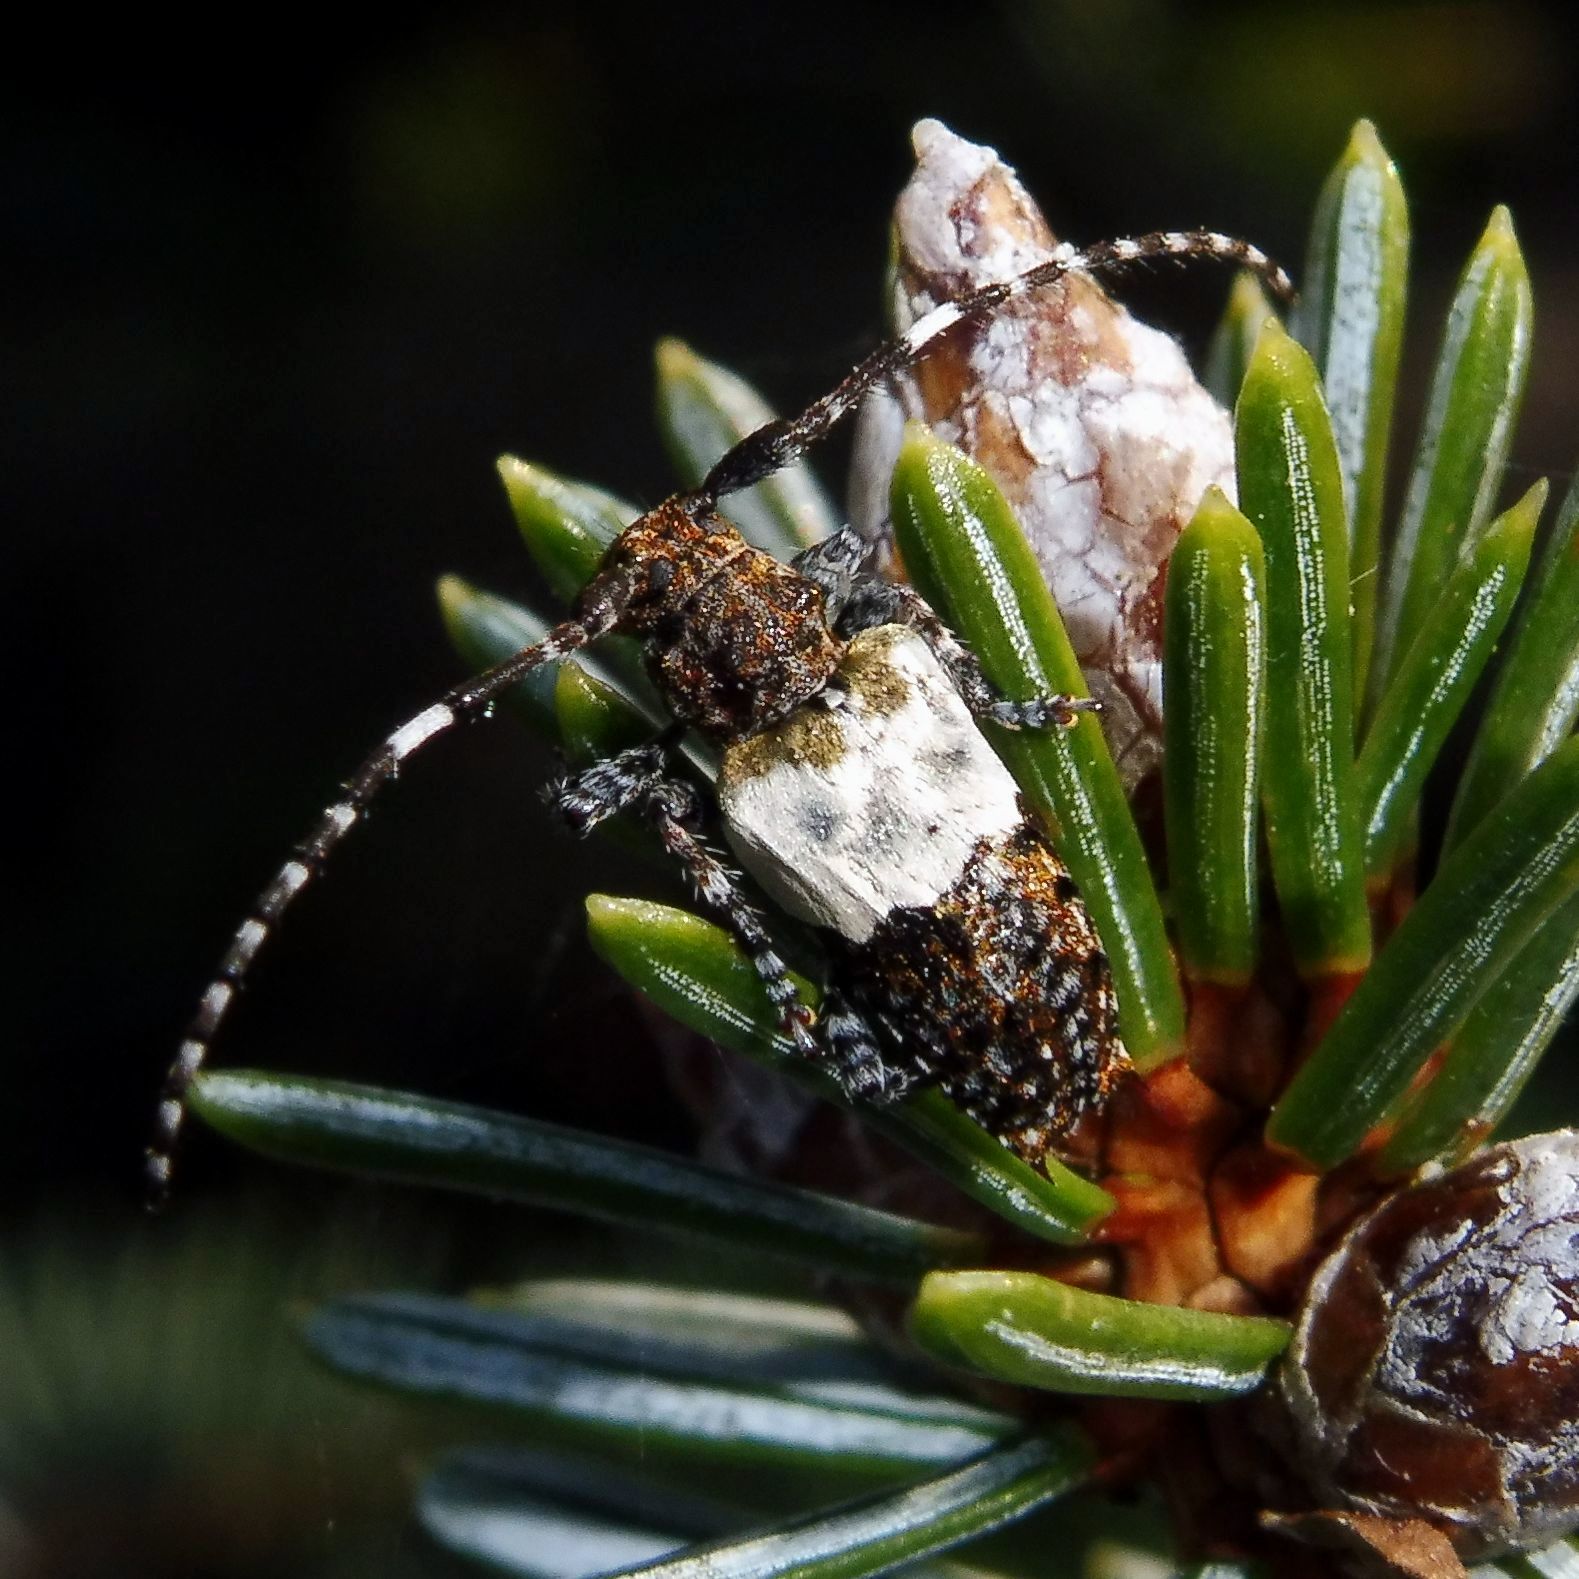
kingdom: Animalia
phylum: Arthropoda
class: Insecta
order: Coleoptera
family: Cerambycidae
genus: Pogonocherus
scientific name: Pogonocherus hispidulus
